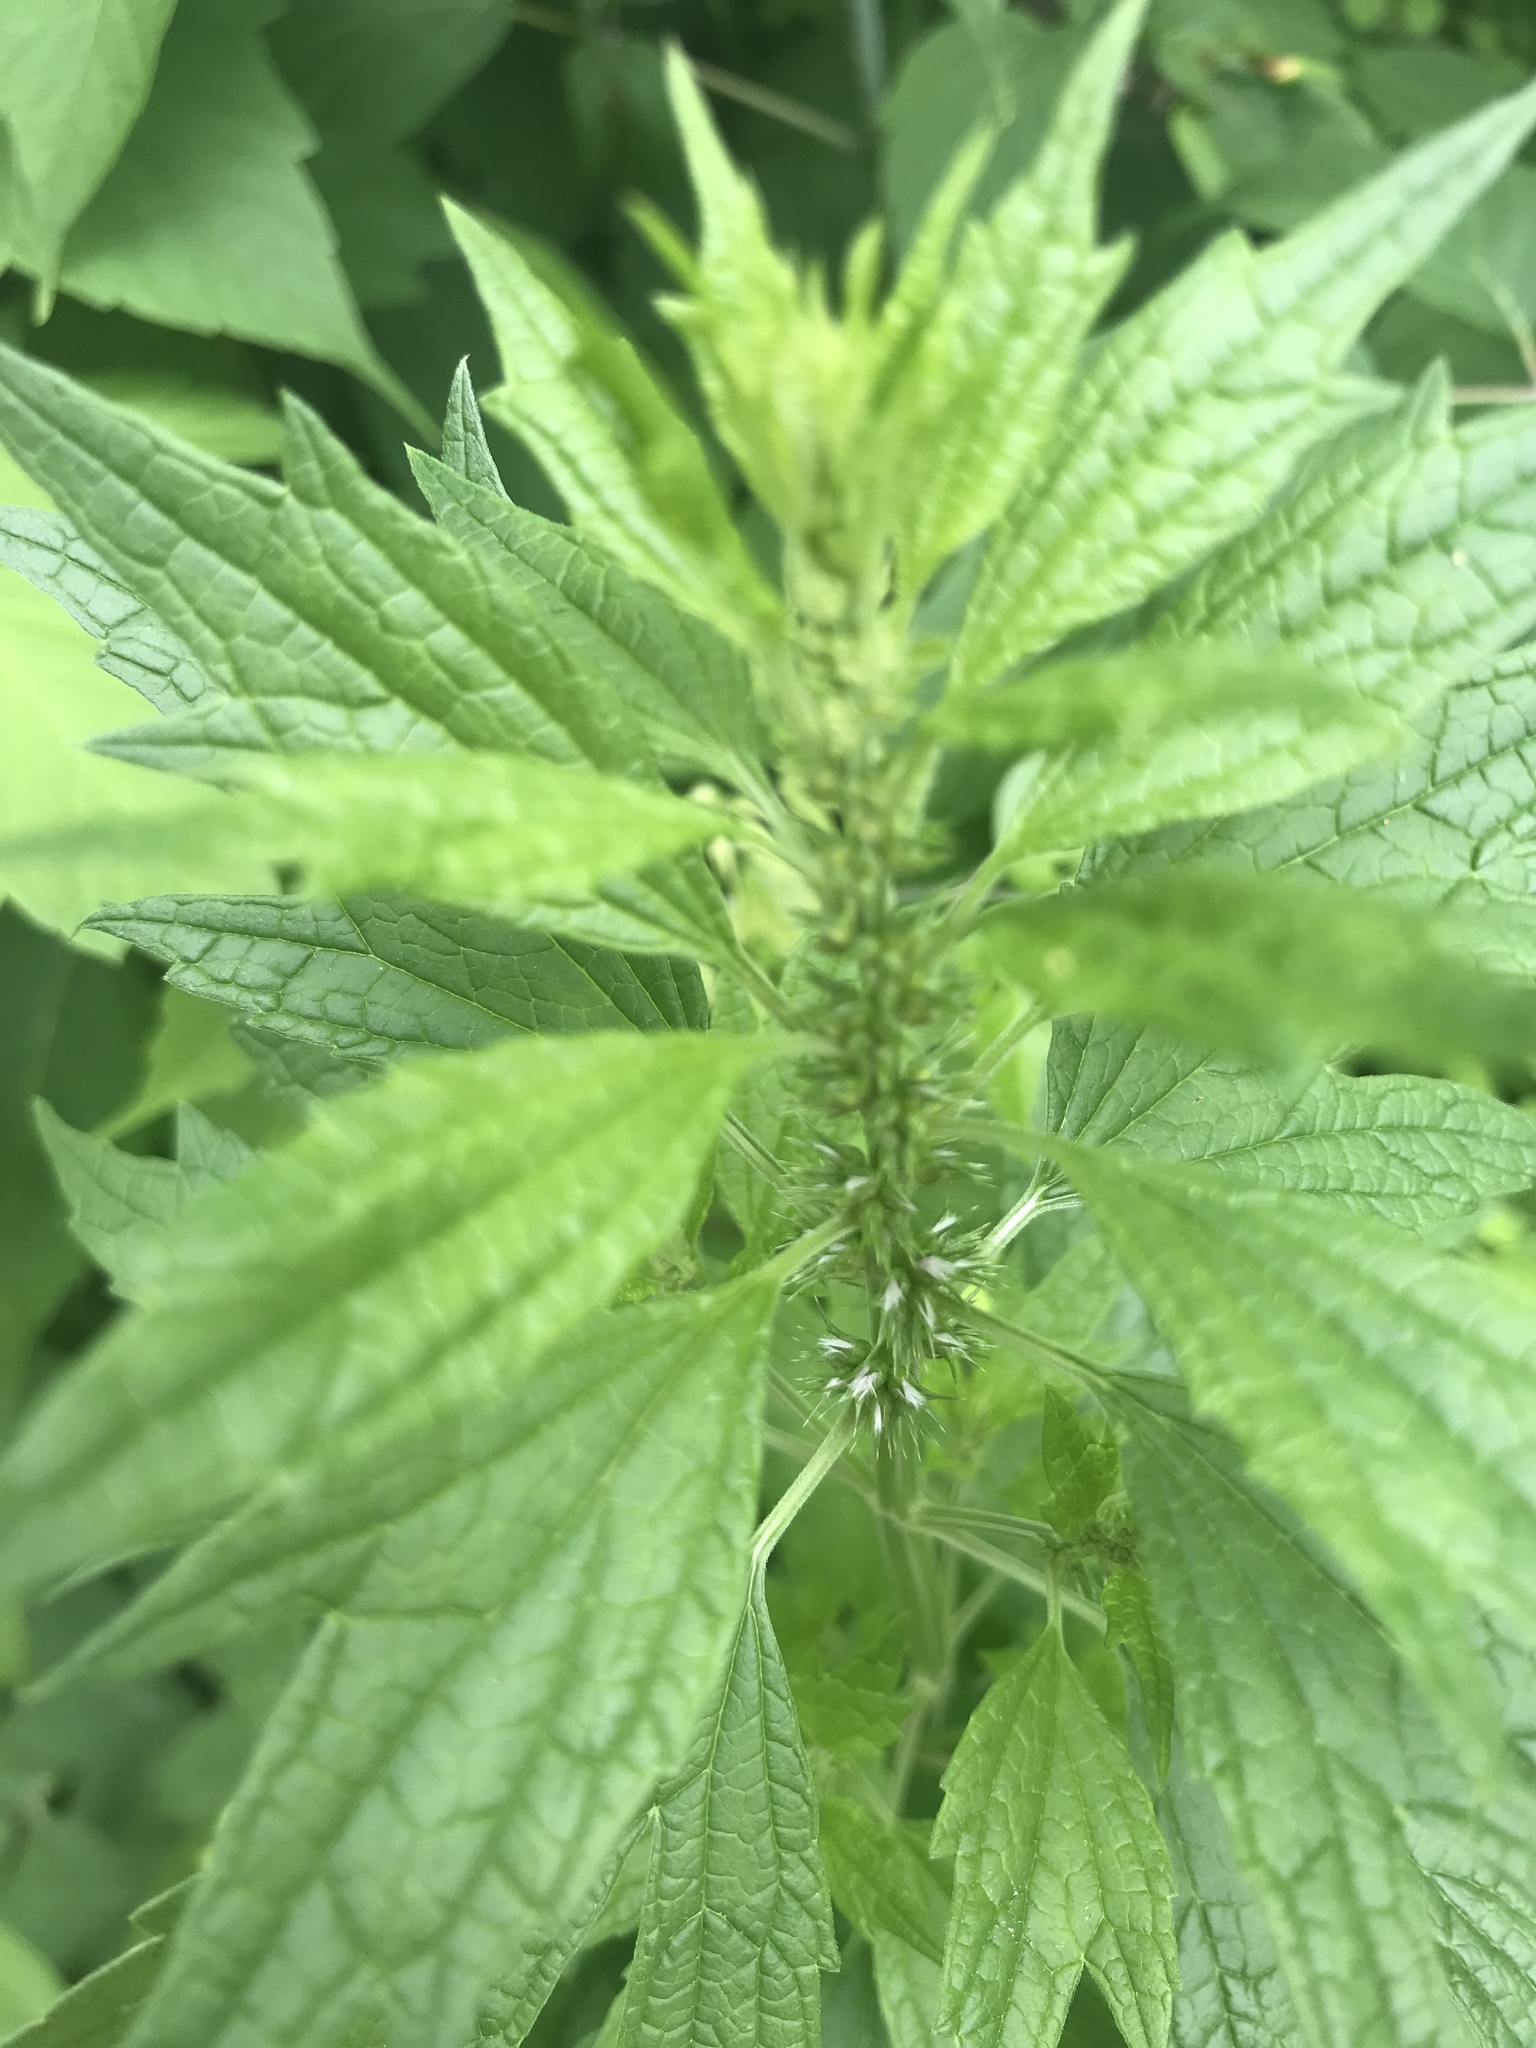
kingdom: Plantae
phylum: Tracheophyta
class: Magnoliopsida
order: Lamiales
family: Lamiaceae
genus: Leonurus
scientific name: Leonurus cardiaca
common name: Motherwort
